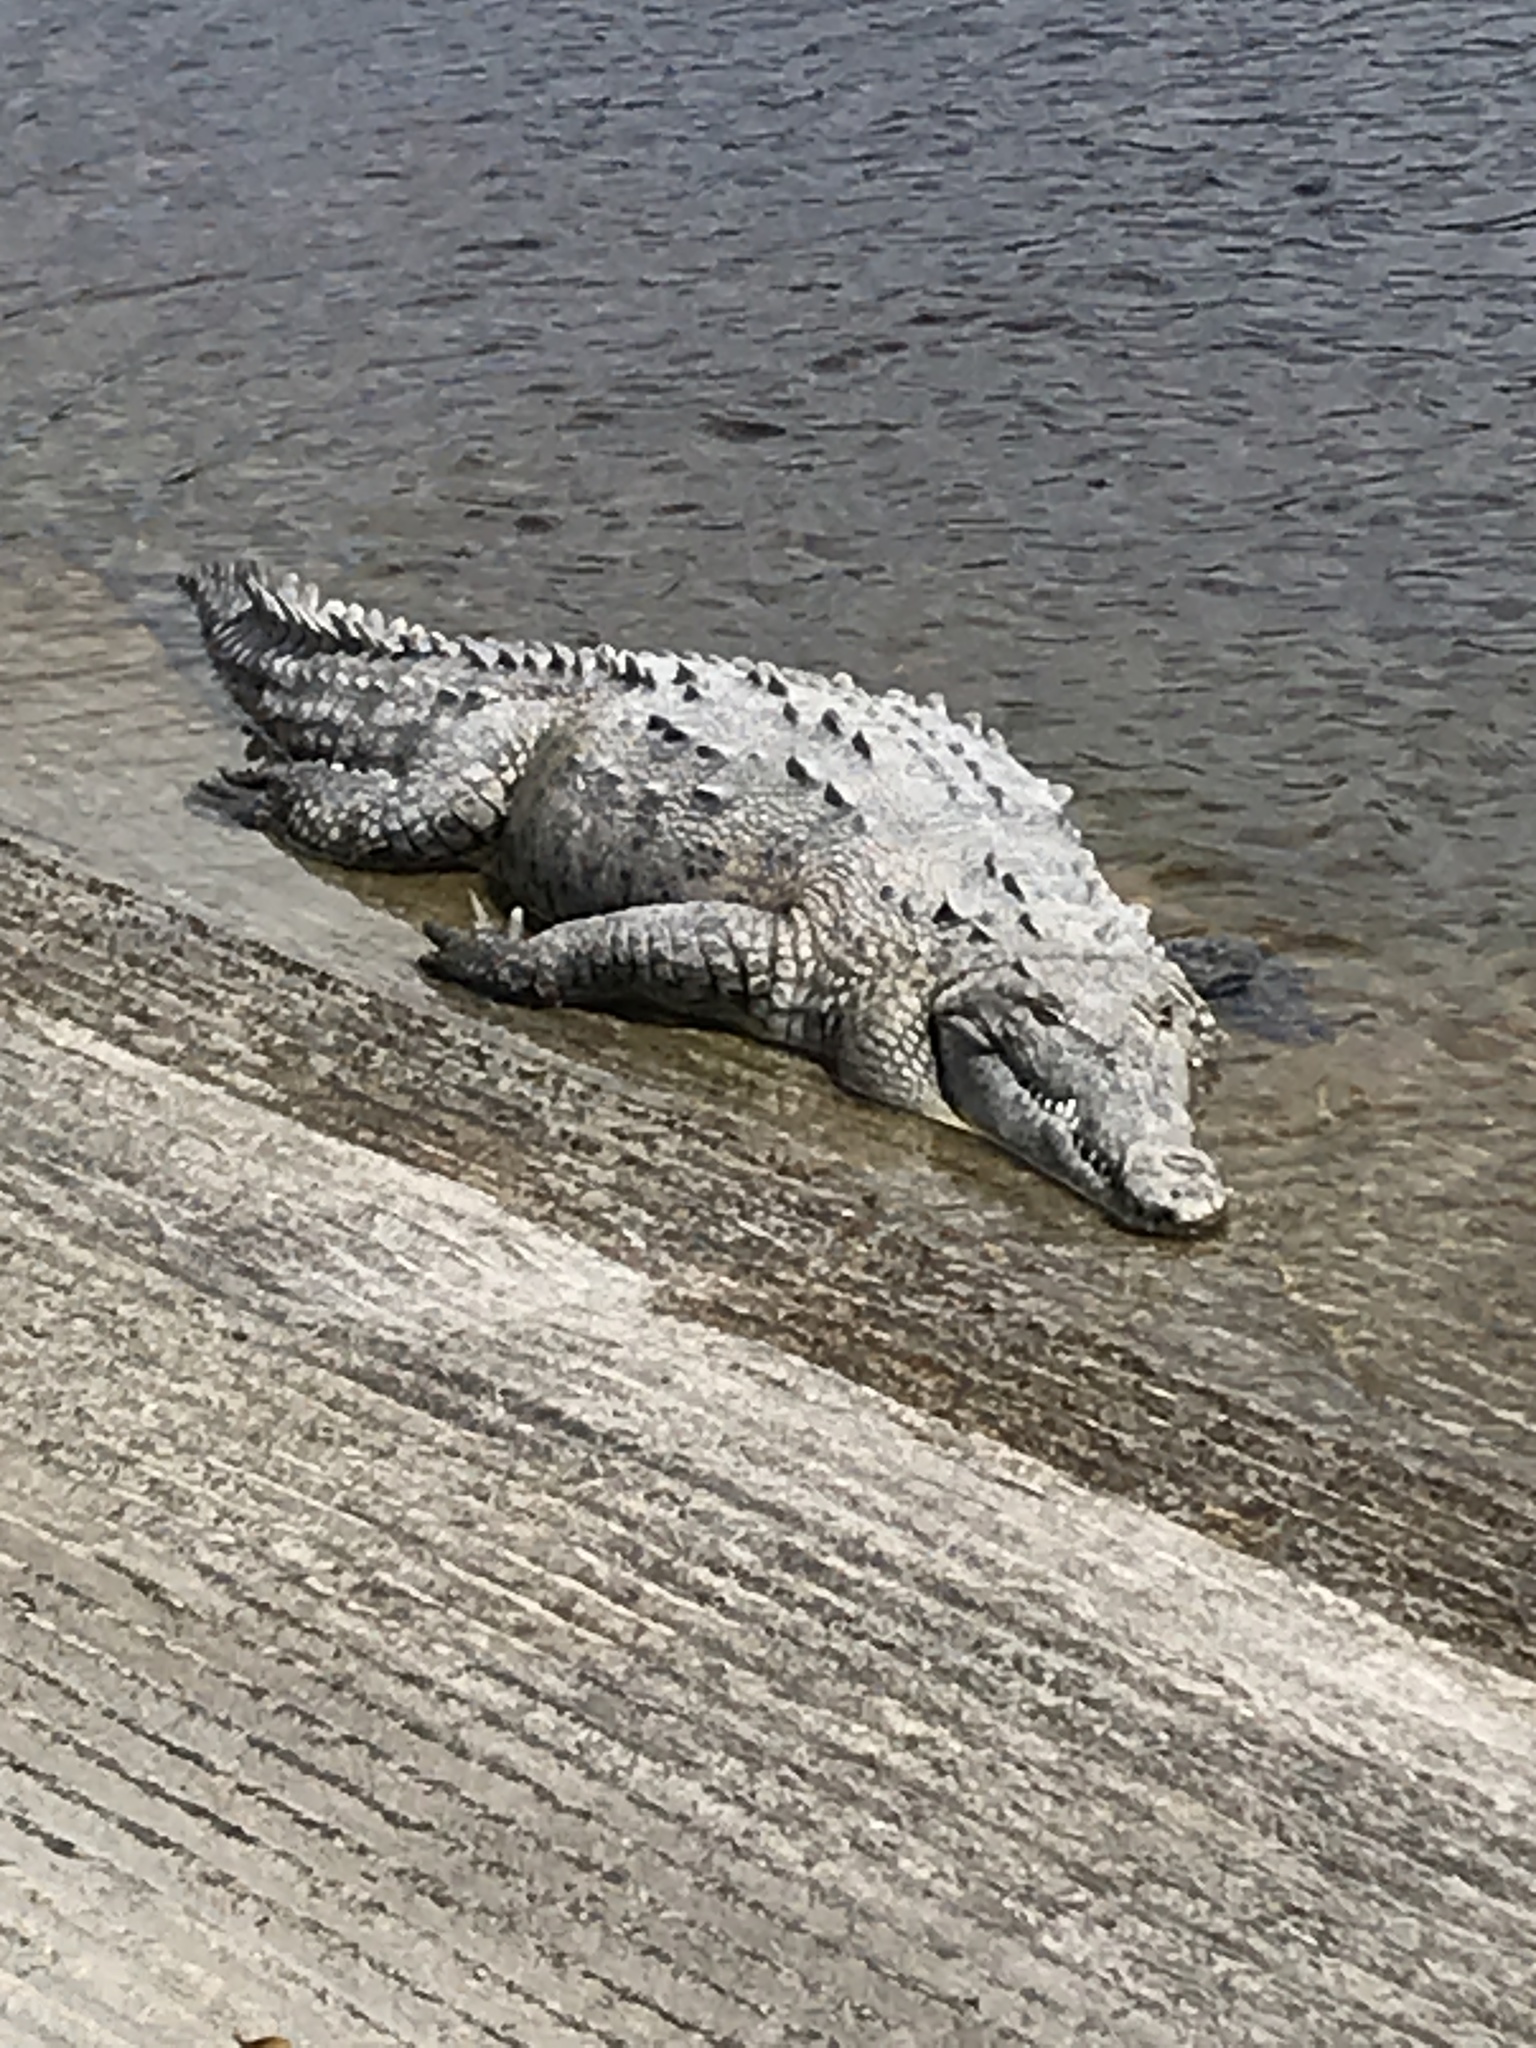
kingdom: Animalia
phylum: Chordata
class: Crocodylia
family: Crocodylidae
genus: Crocodylus
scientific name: Crocodylus acutus
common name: American crocodile
